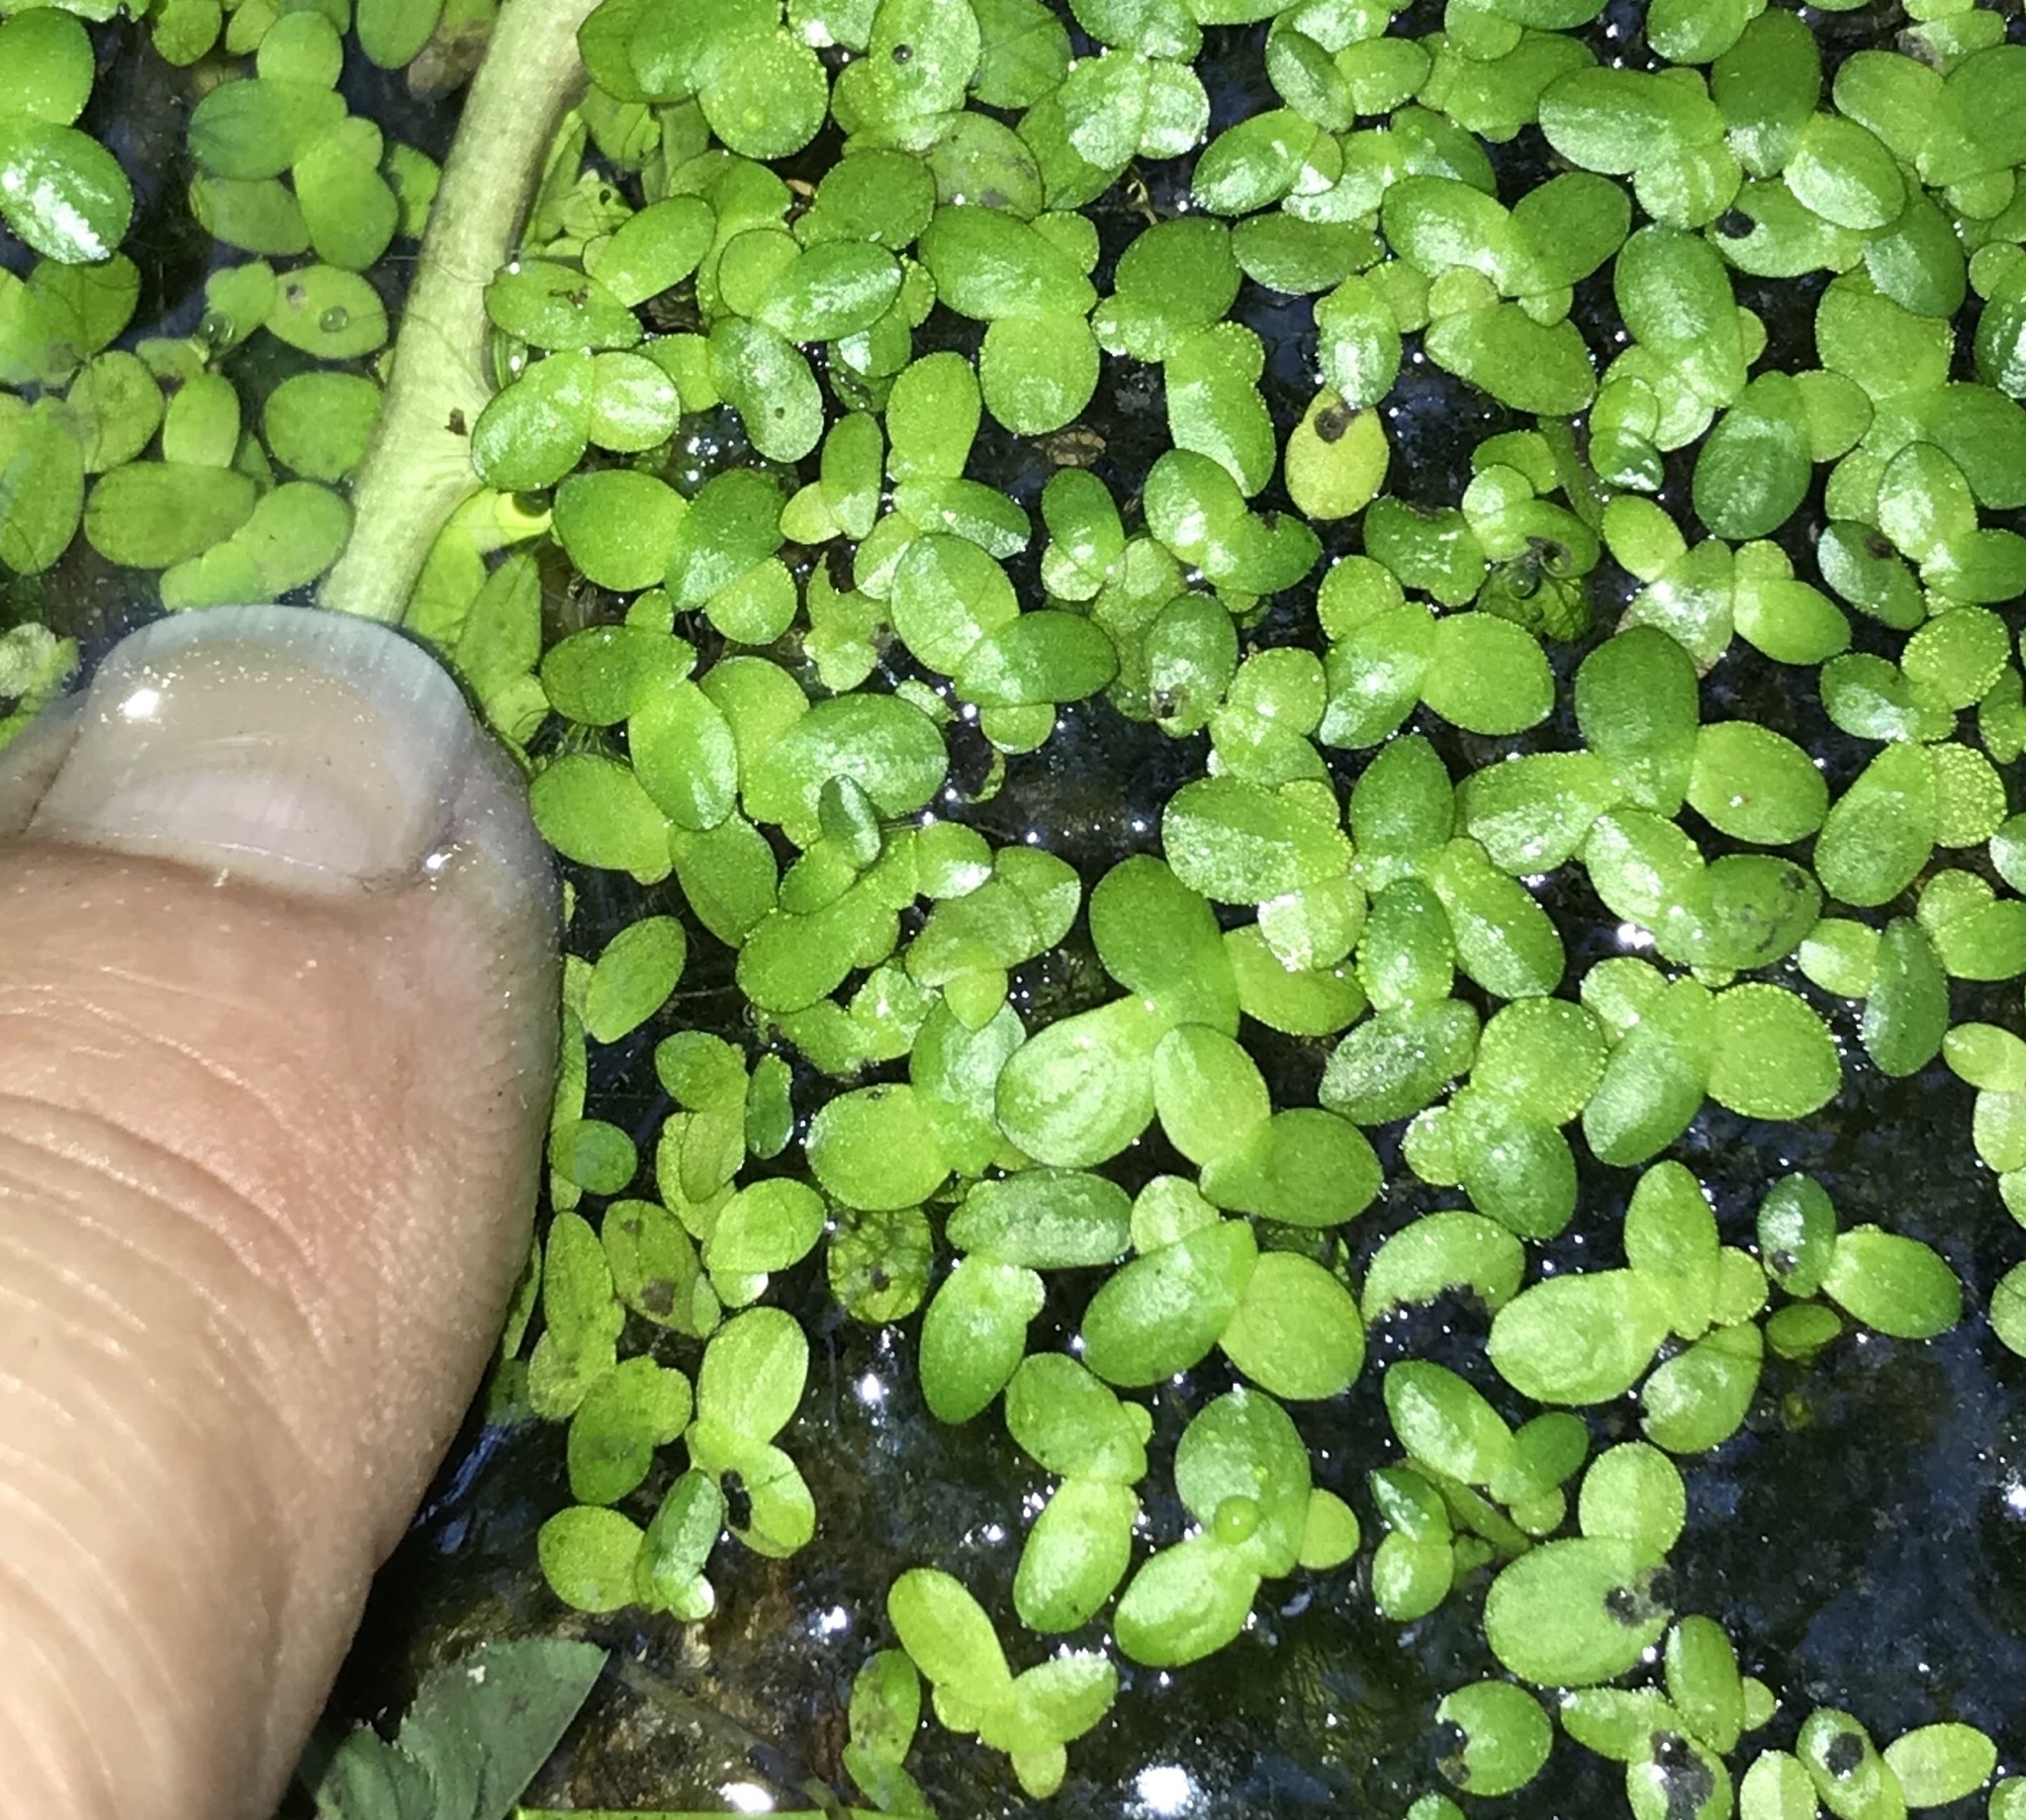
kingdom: Plantae
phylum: Tracheophyta
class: Liliopsida
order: Alismatales
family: Araceae
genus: Lemna
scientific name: Lemna minor
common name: Common duckweed
